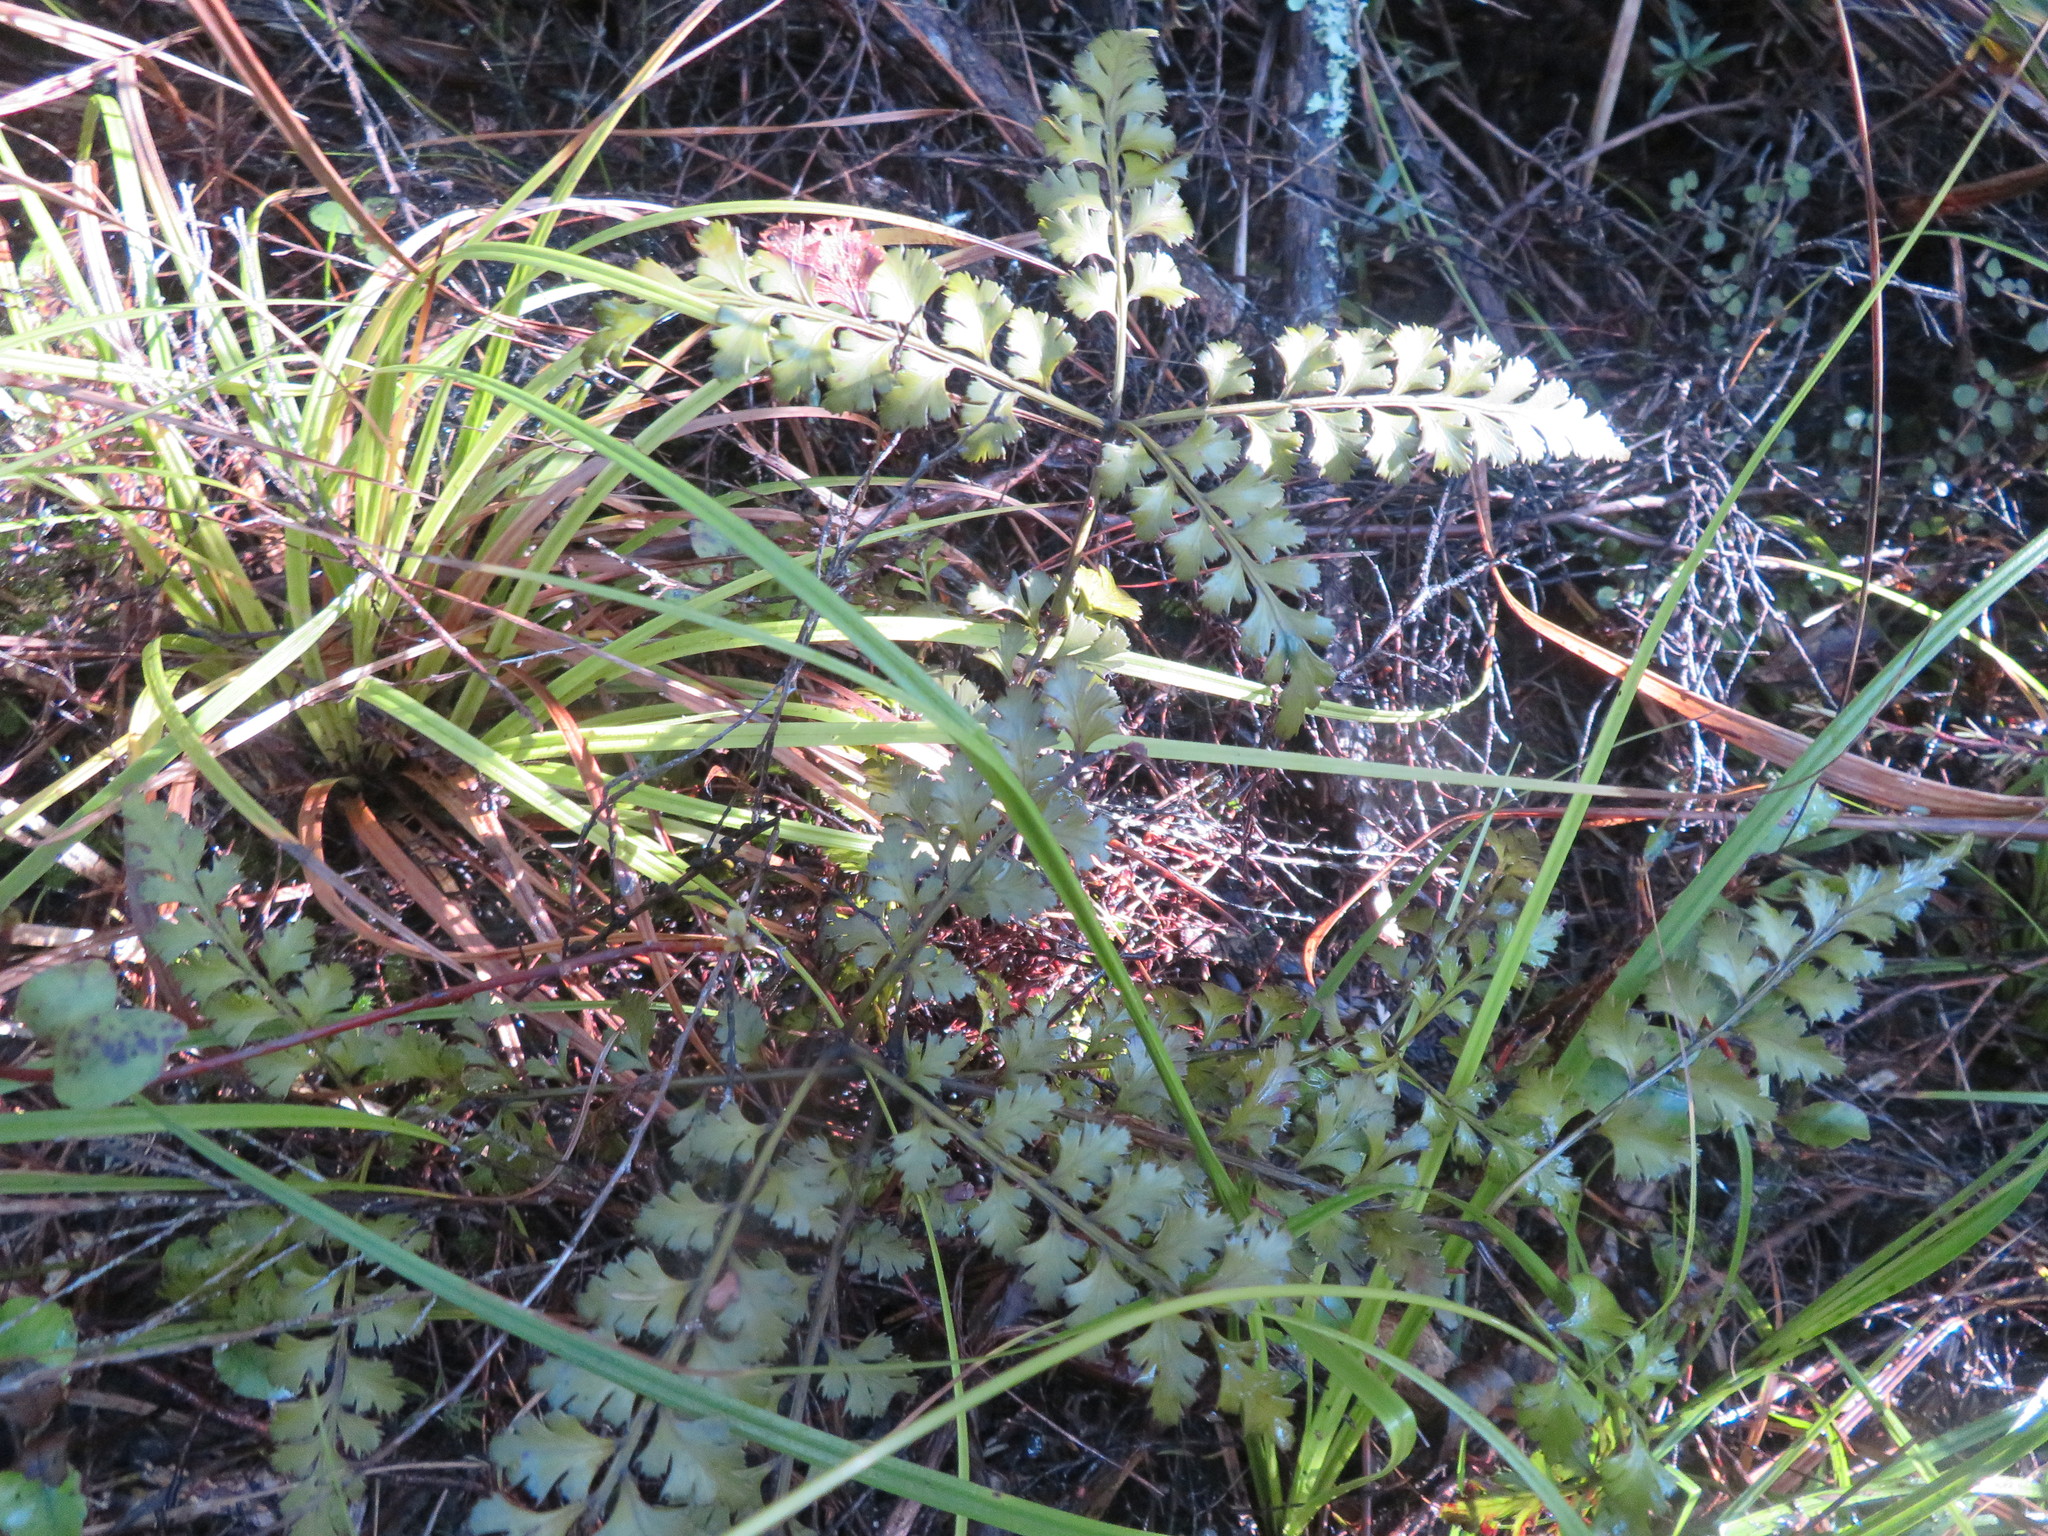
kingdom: Plantae
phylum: Tracheophyta
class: Pinopsida
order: Pinales
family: Phyllocladaceae
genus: Phyllocladus
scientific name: Phyllocladus trichomanoides
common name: Celery pine
